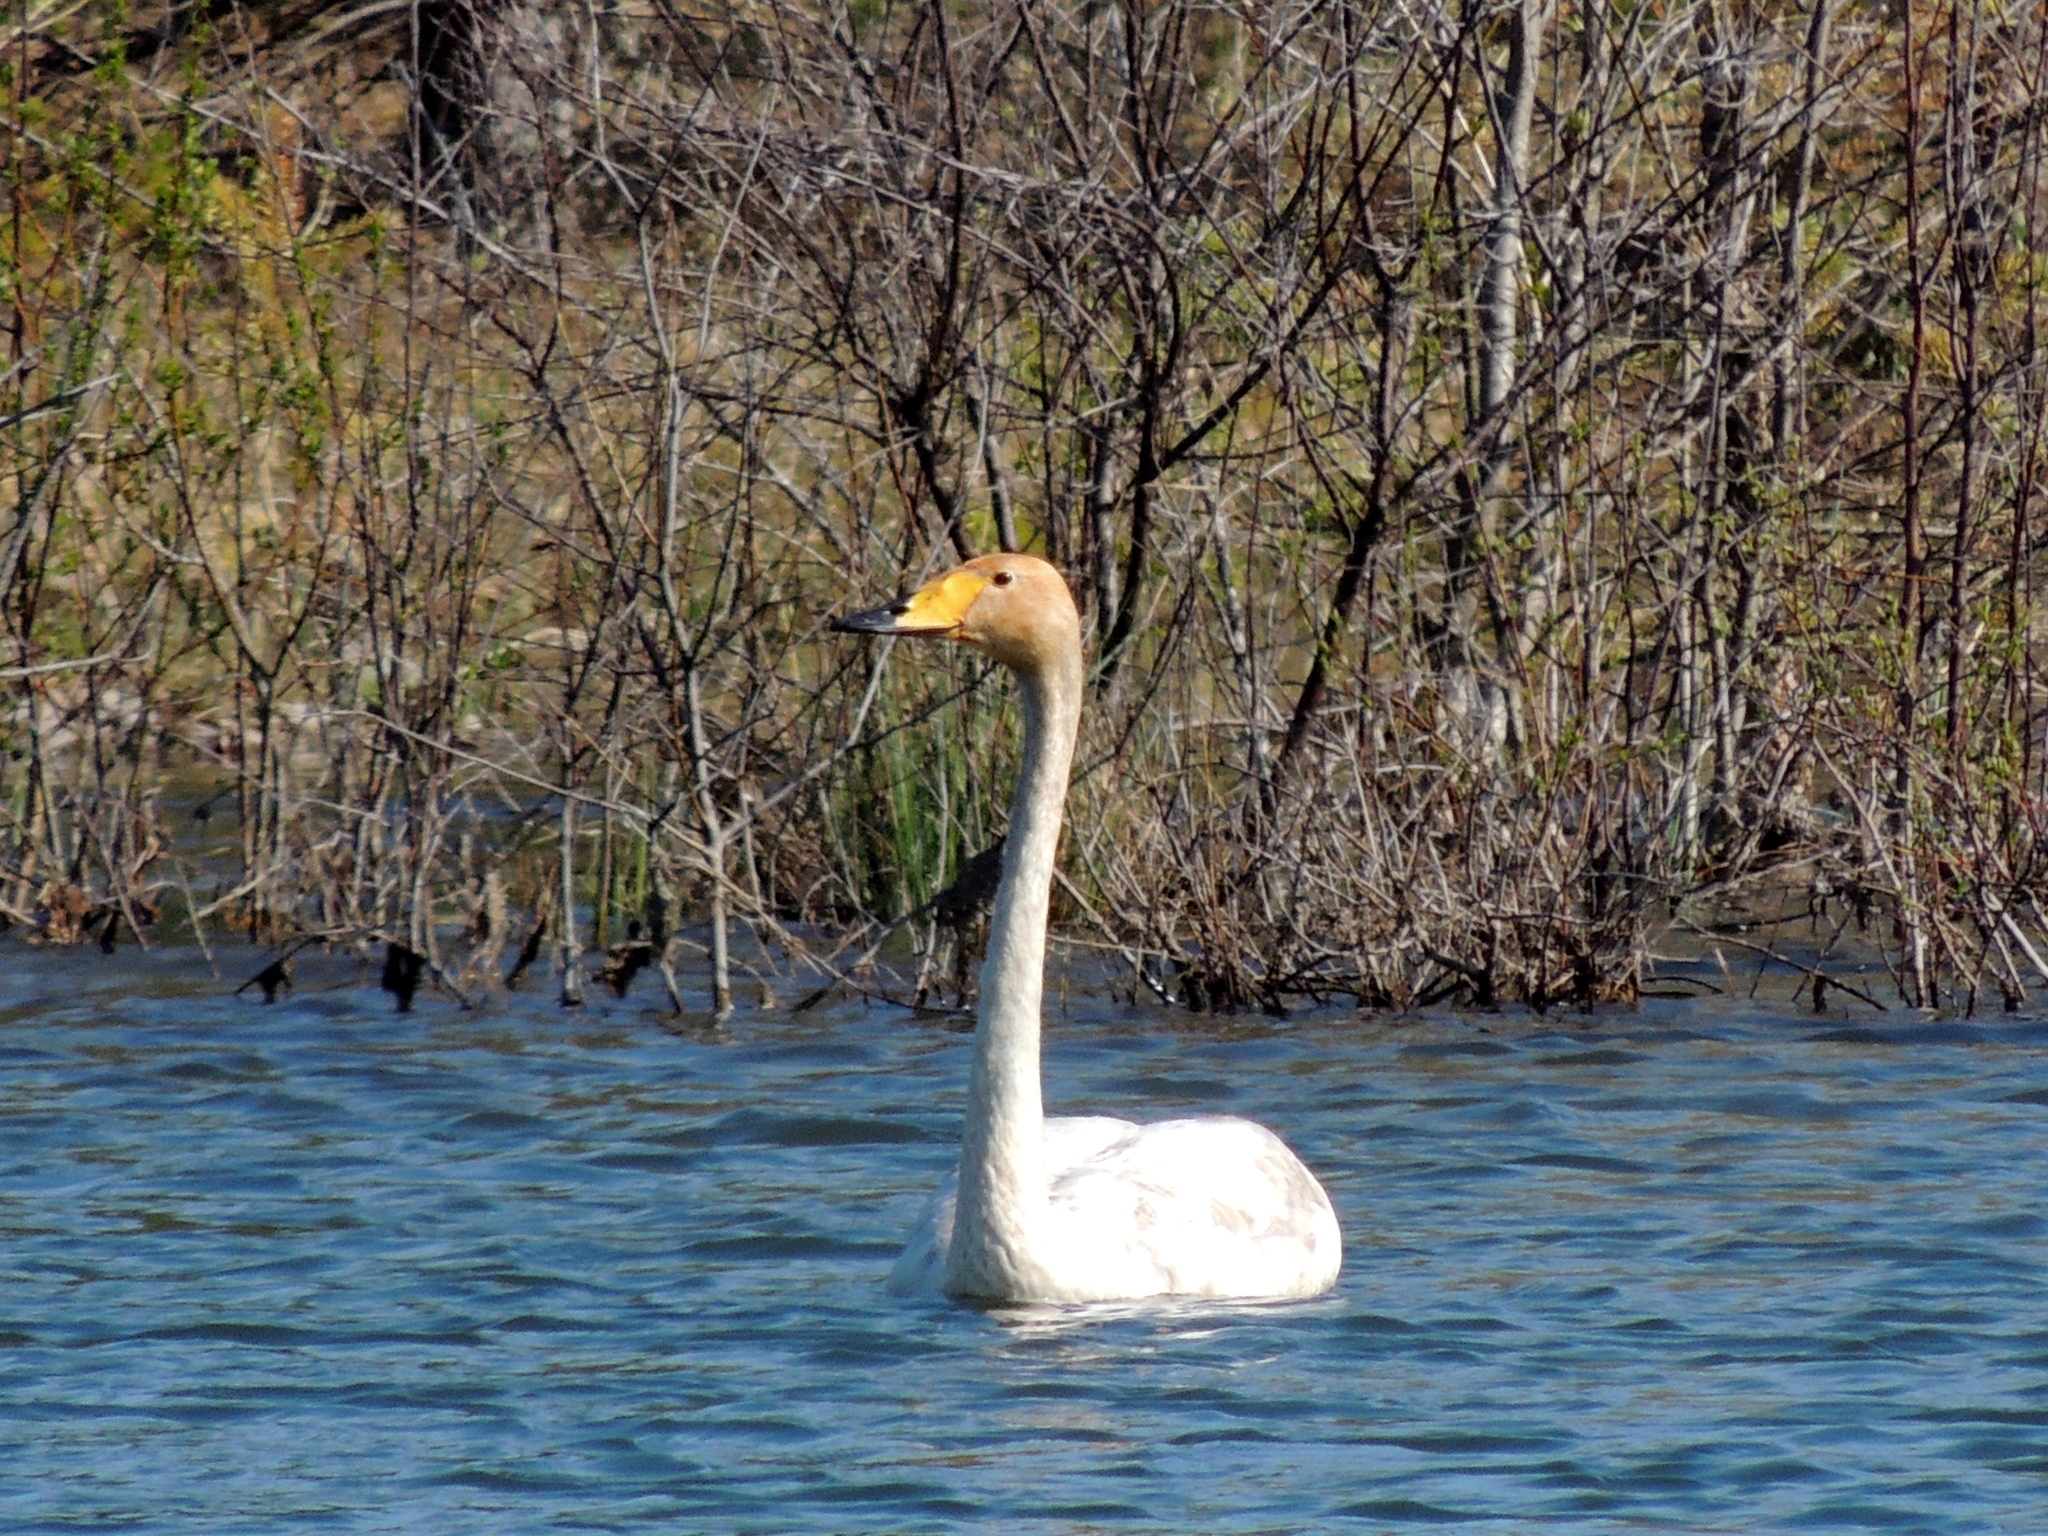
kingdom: Animalia
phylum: Chordata
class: Aves
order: Anseriformes
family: Anatidae
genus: Cygnus
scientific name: Cygnus cygnus
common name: Whooper swan
